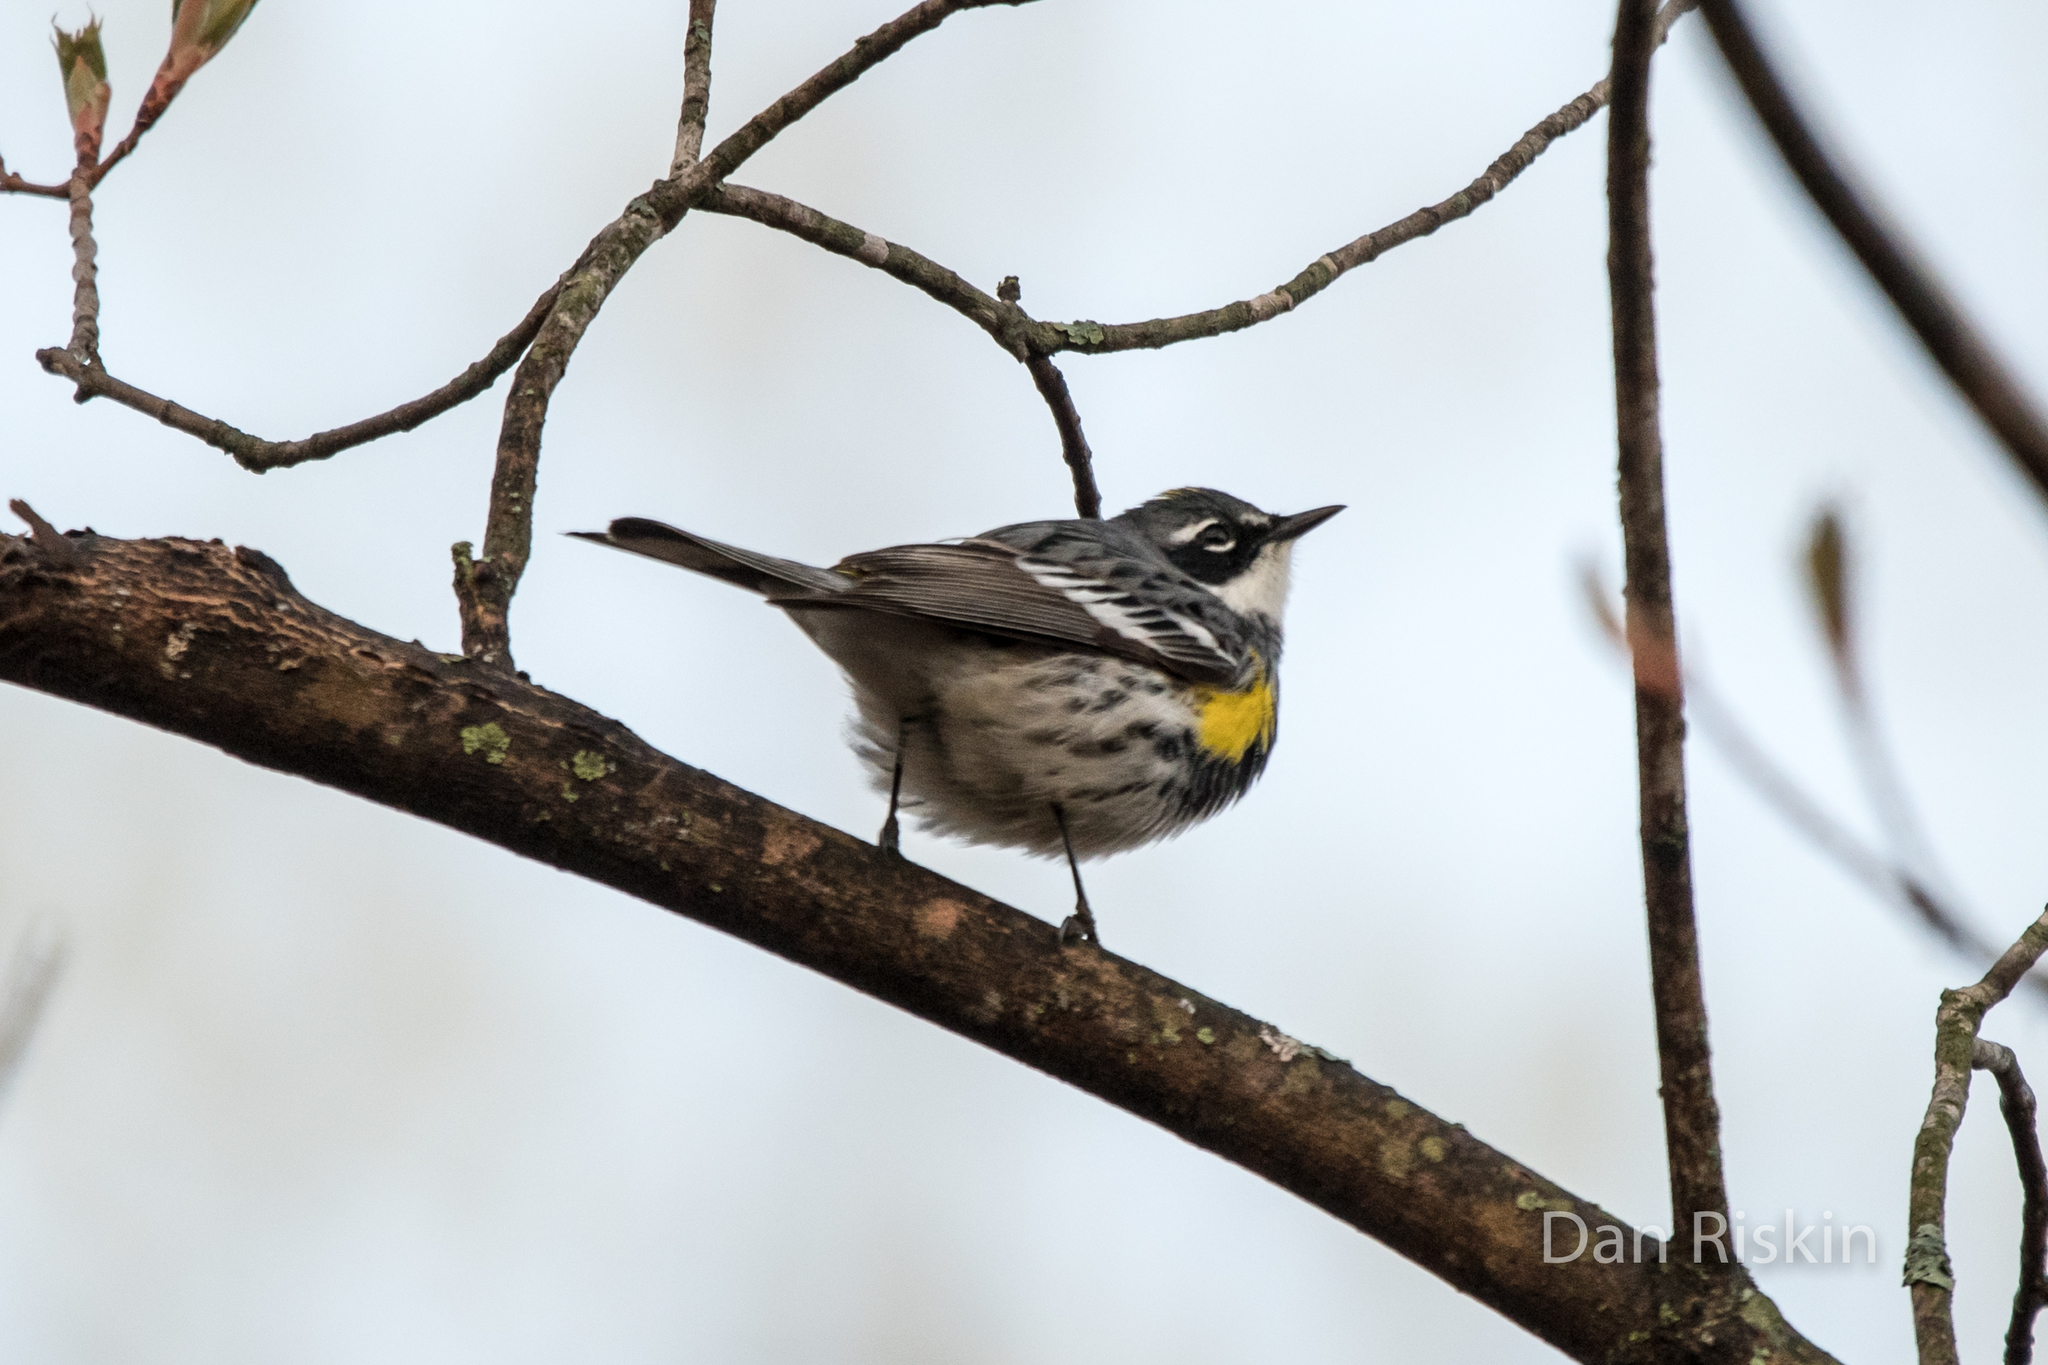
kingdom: Animalia
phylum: Chordata
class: Aves
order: Passeriformes
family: Parulidae
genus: Setophaga
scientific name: Setophaga coronata
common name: Myrtle warbler
